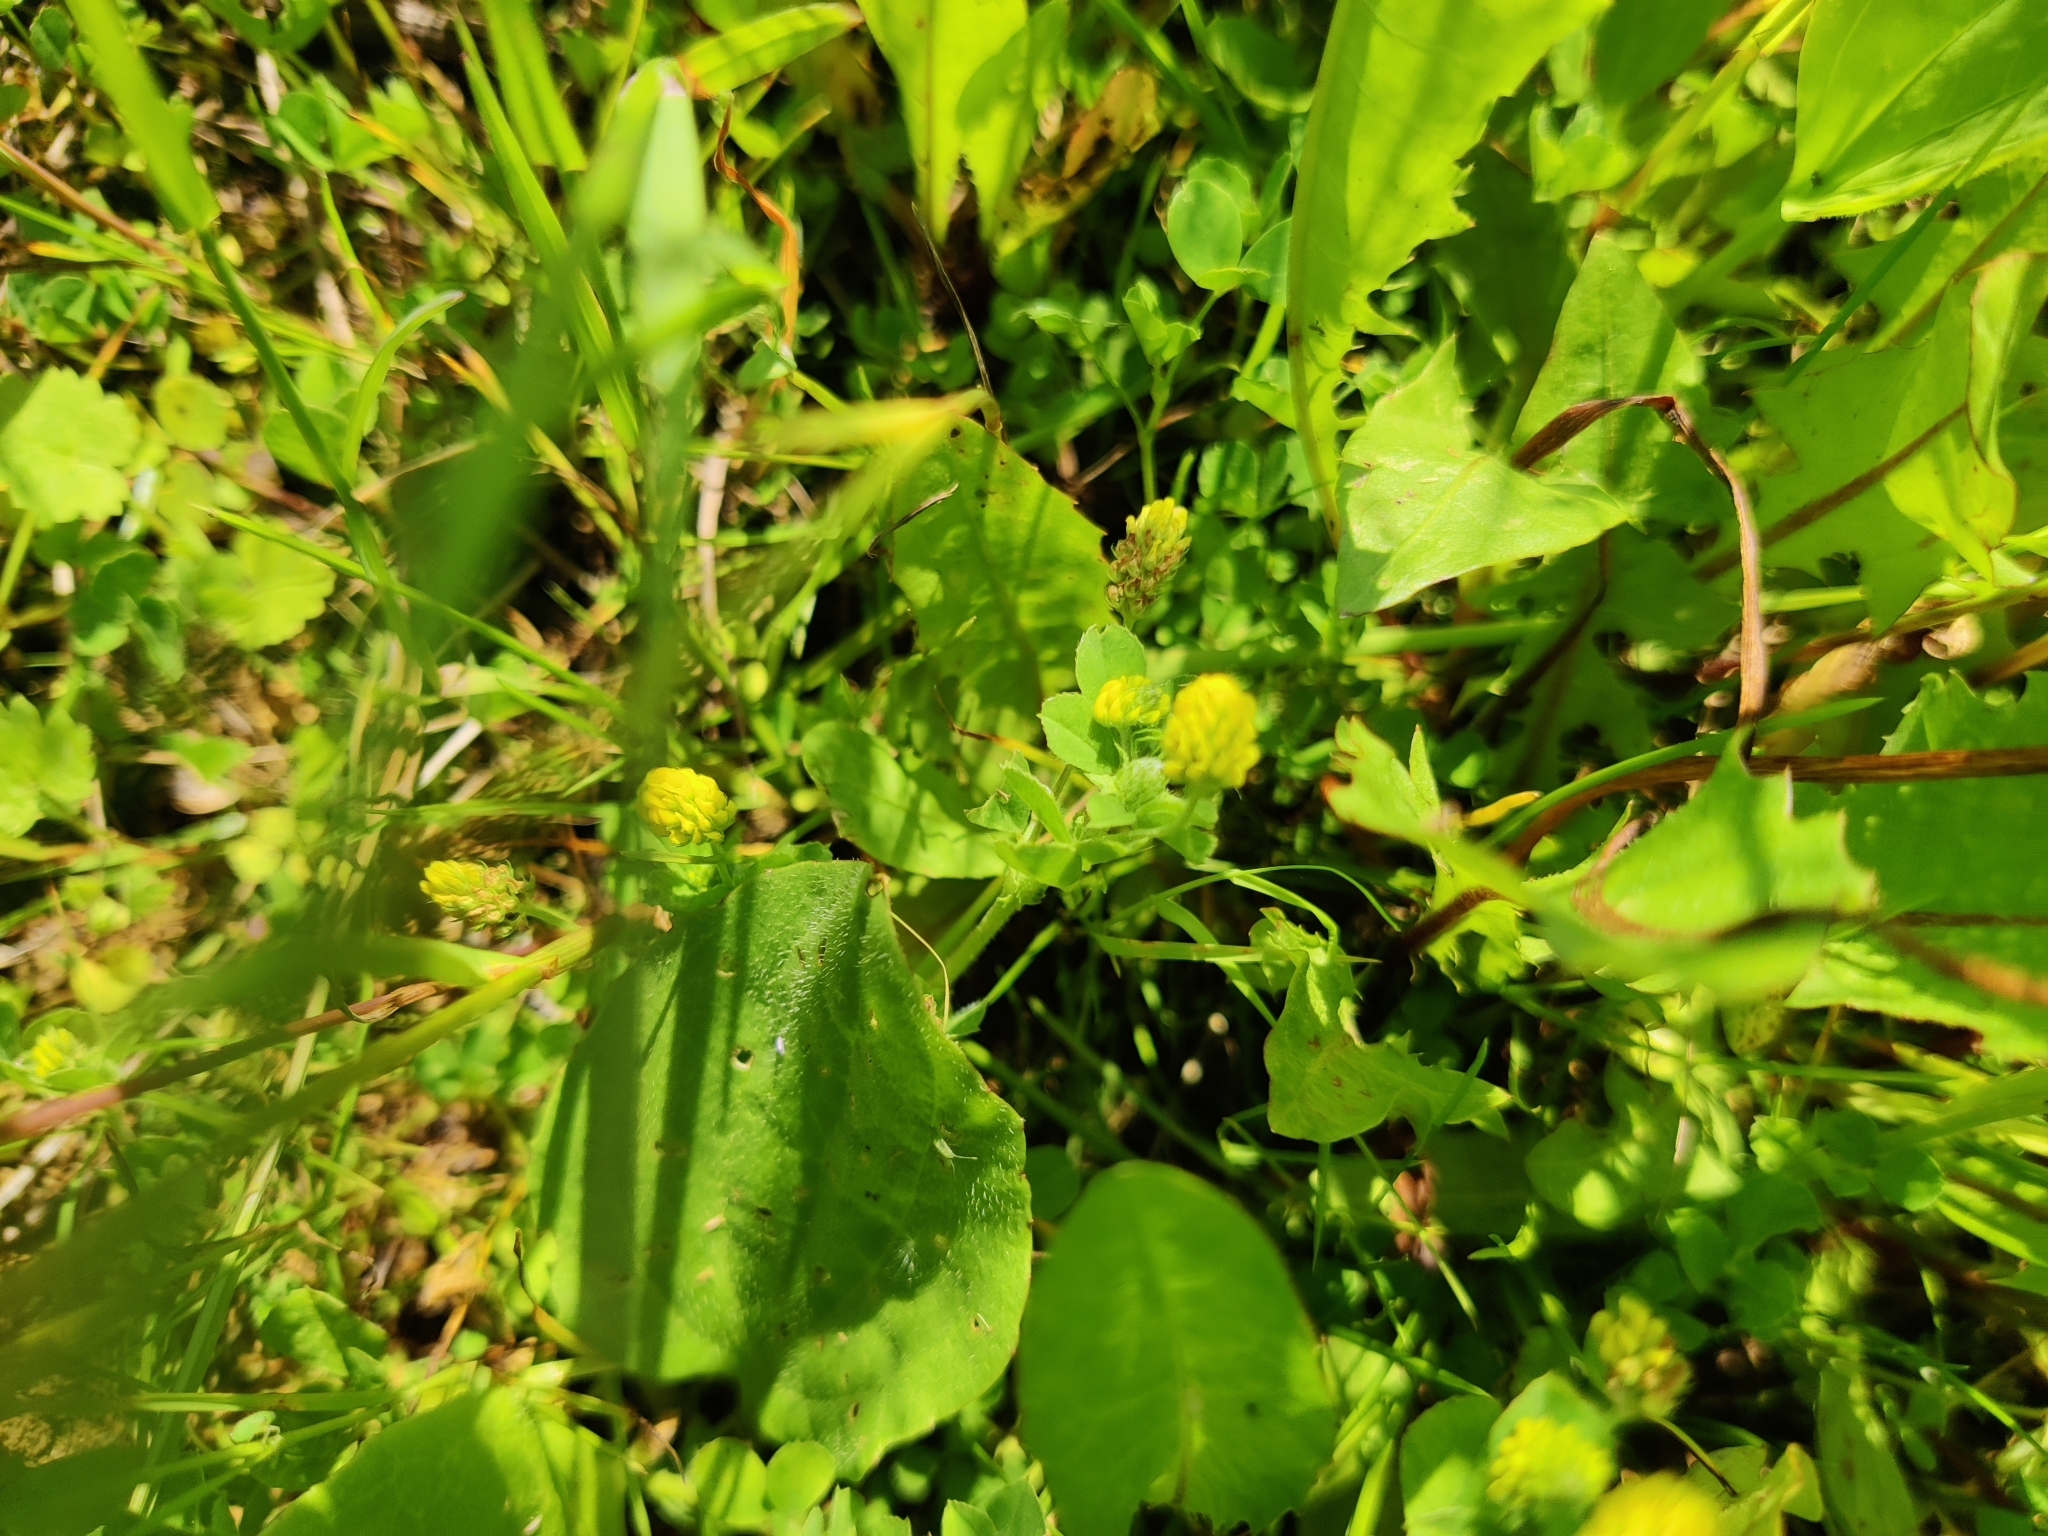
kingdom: Plantae
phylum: Tracheophyta
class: Magnoliopsida
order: Fabales
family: Fabaceae
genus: Medicago
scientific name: Medicago lupulina
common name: Black medick
